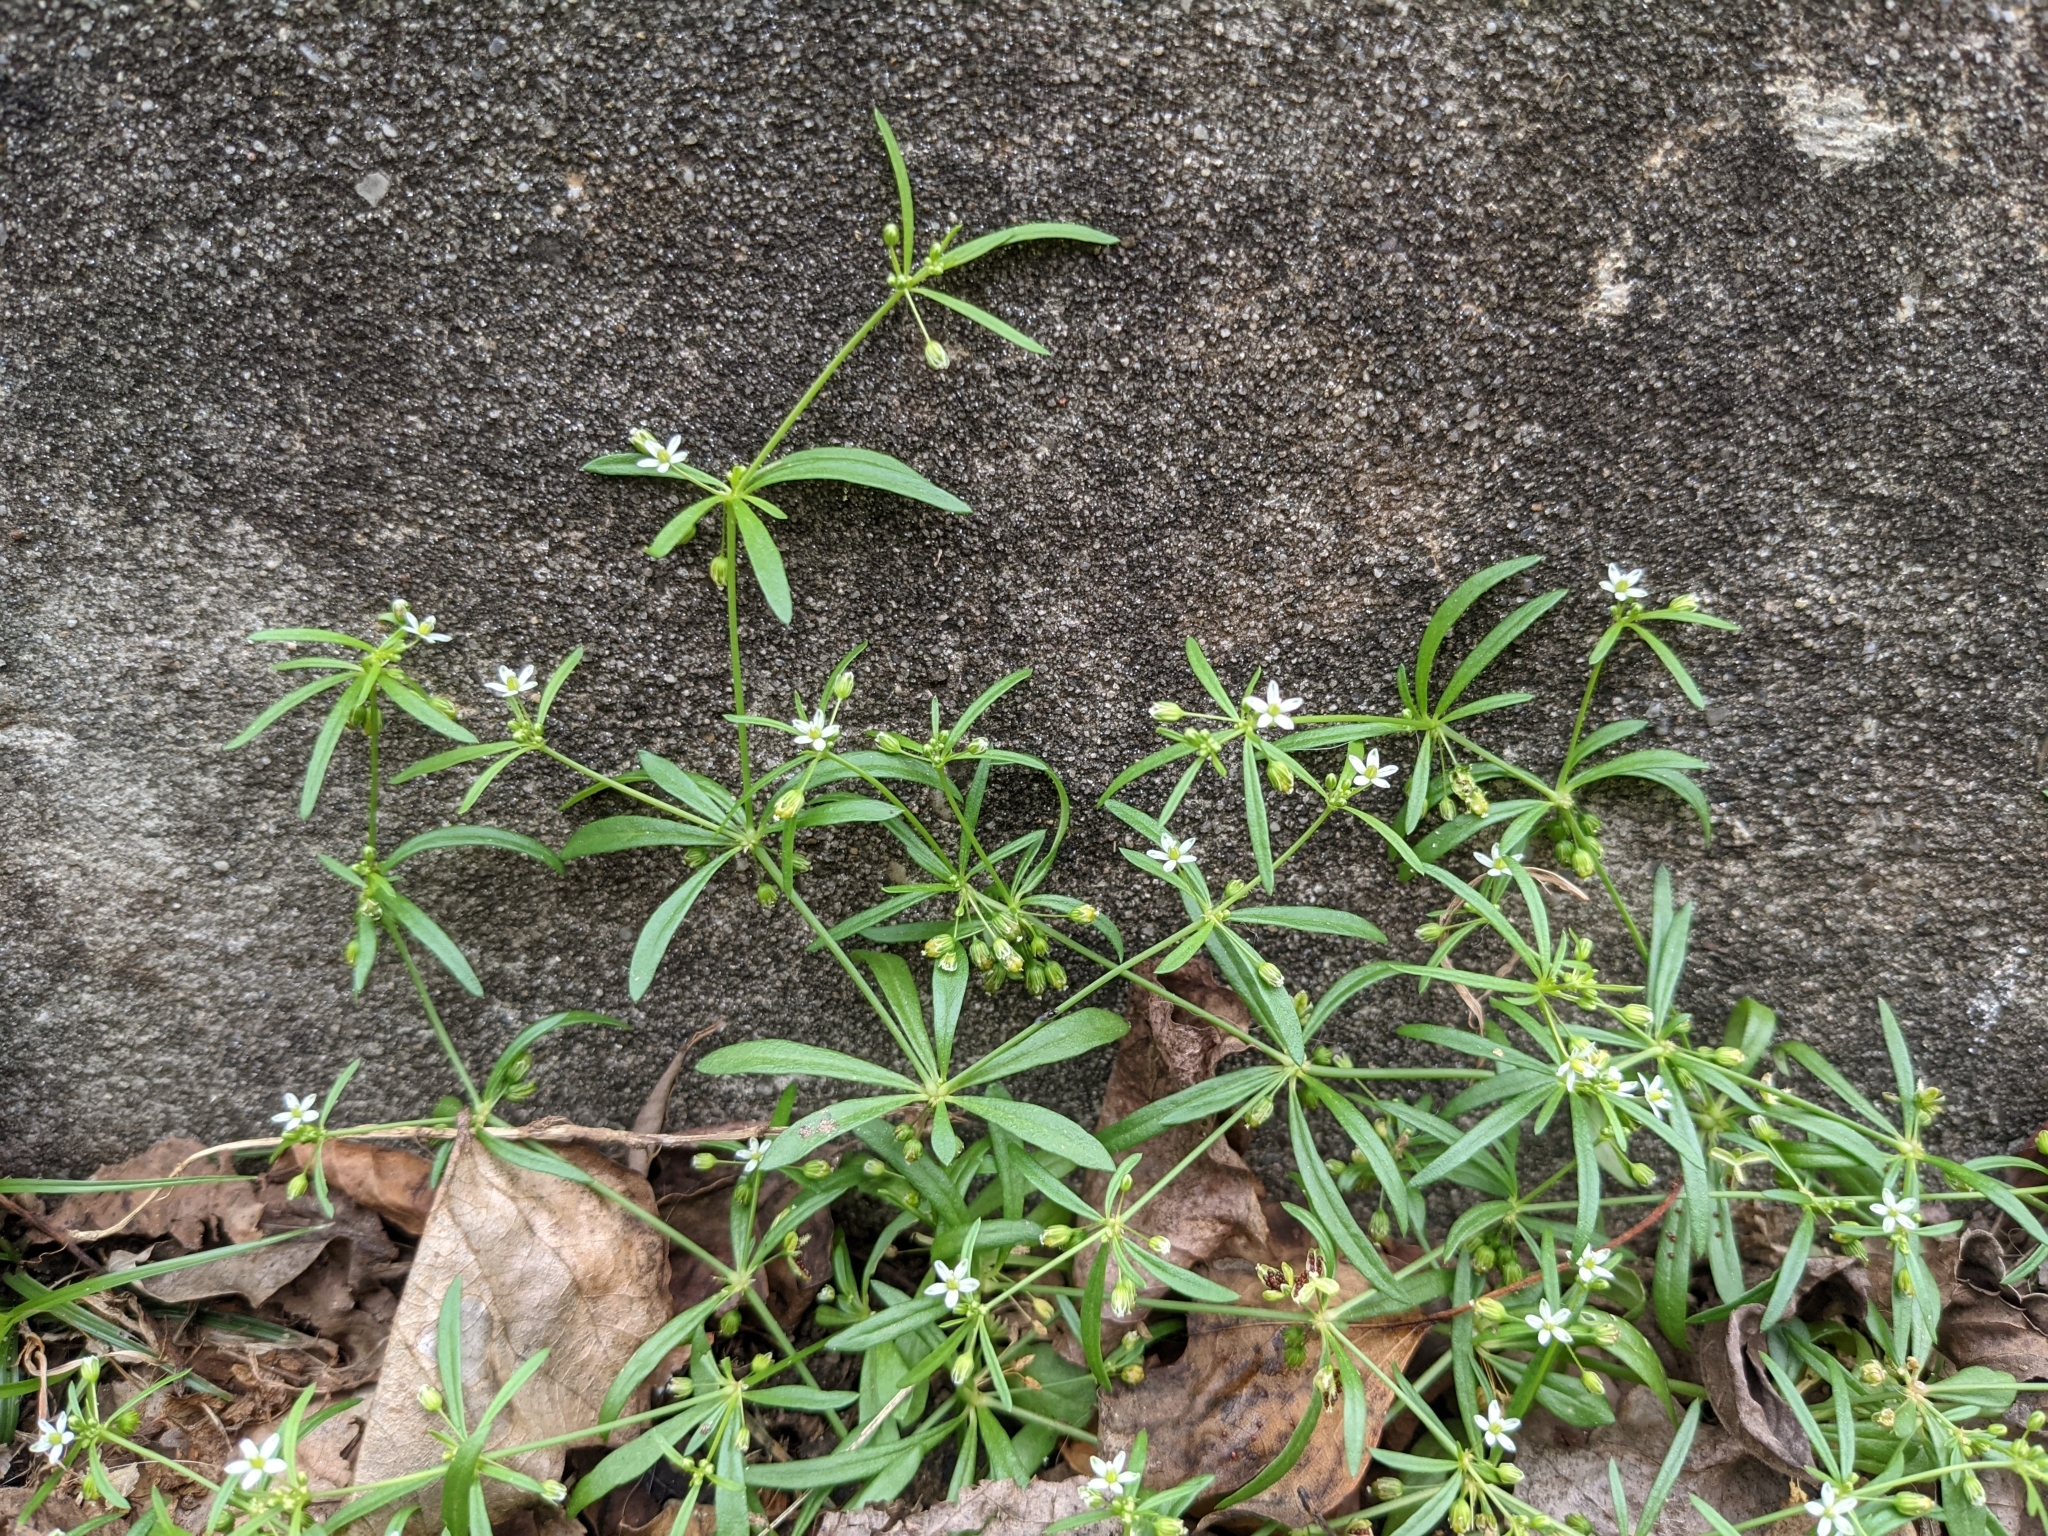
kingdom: Plantae
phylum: Tracheophyta
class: Magnoliopsida
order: Caryophyllales
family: Molluginaceae
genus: Mollugo
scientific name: Mollugo verticillata
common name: Green carpetweed
